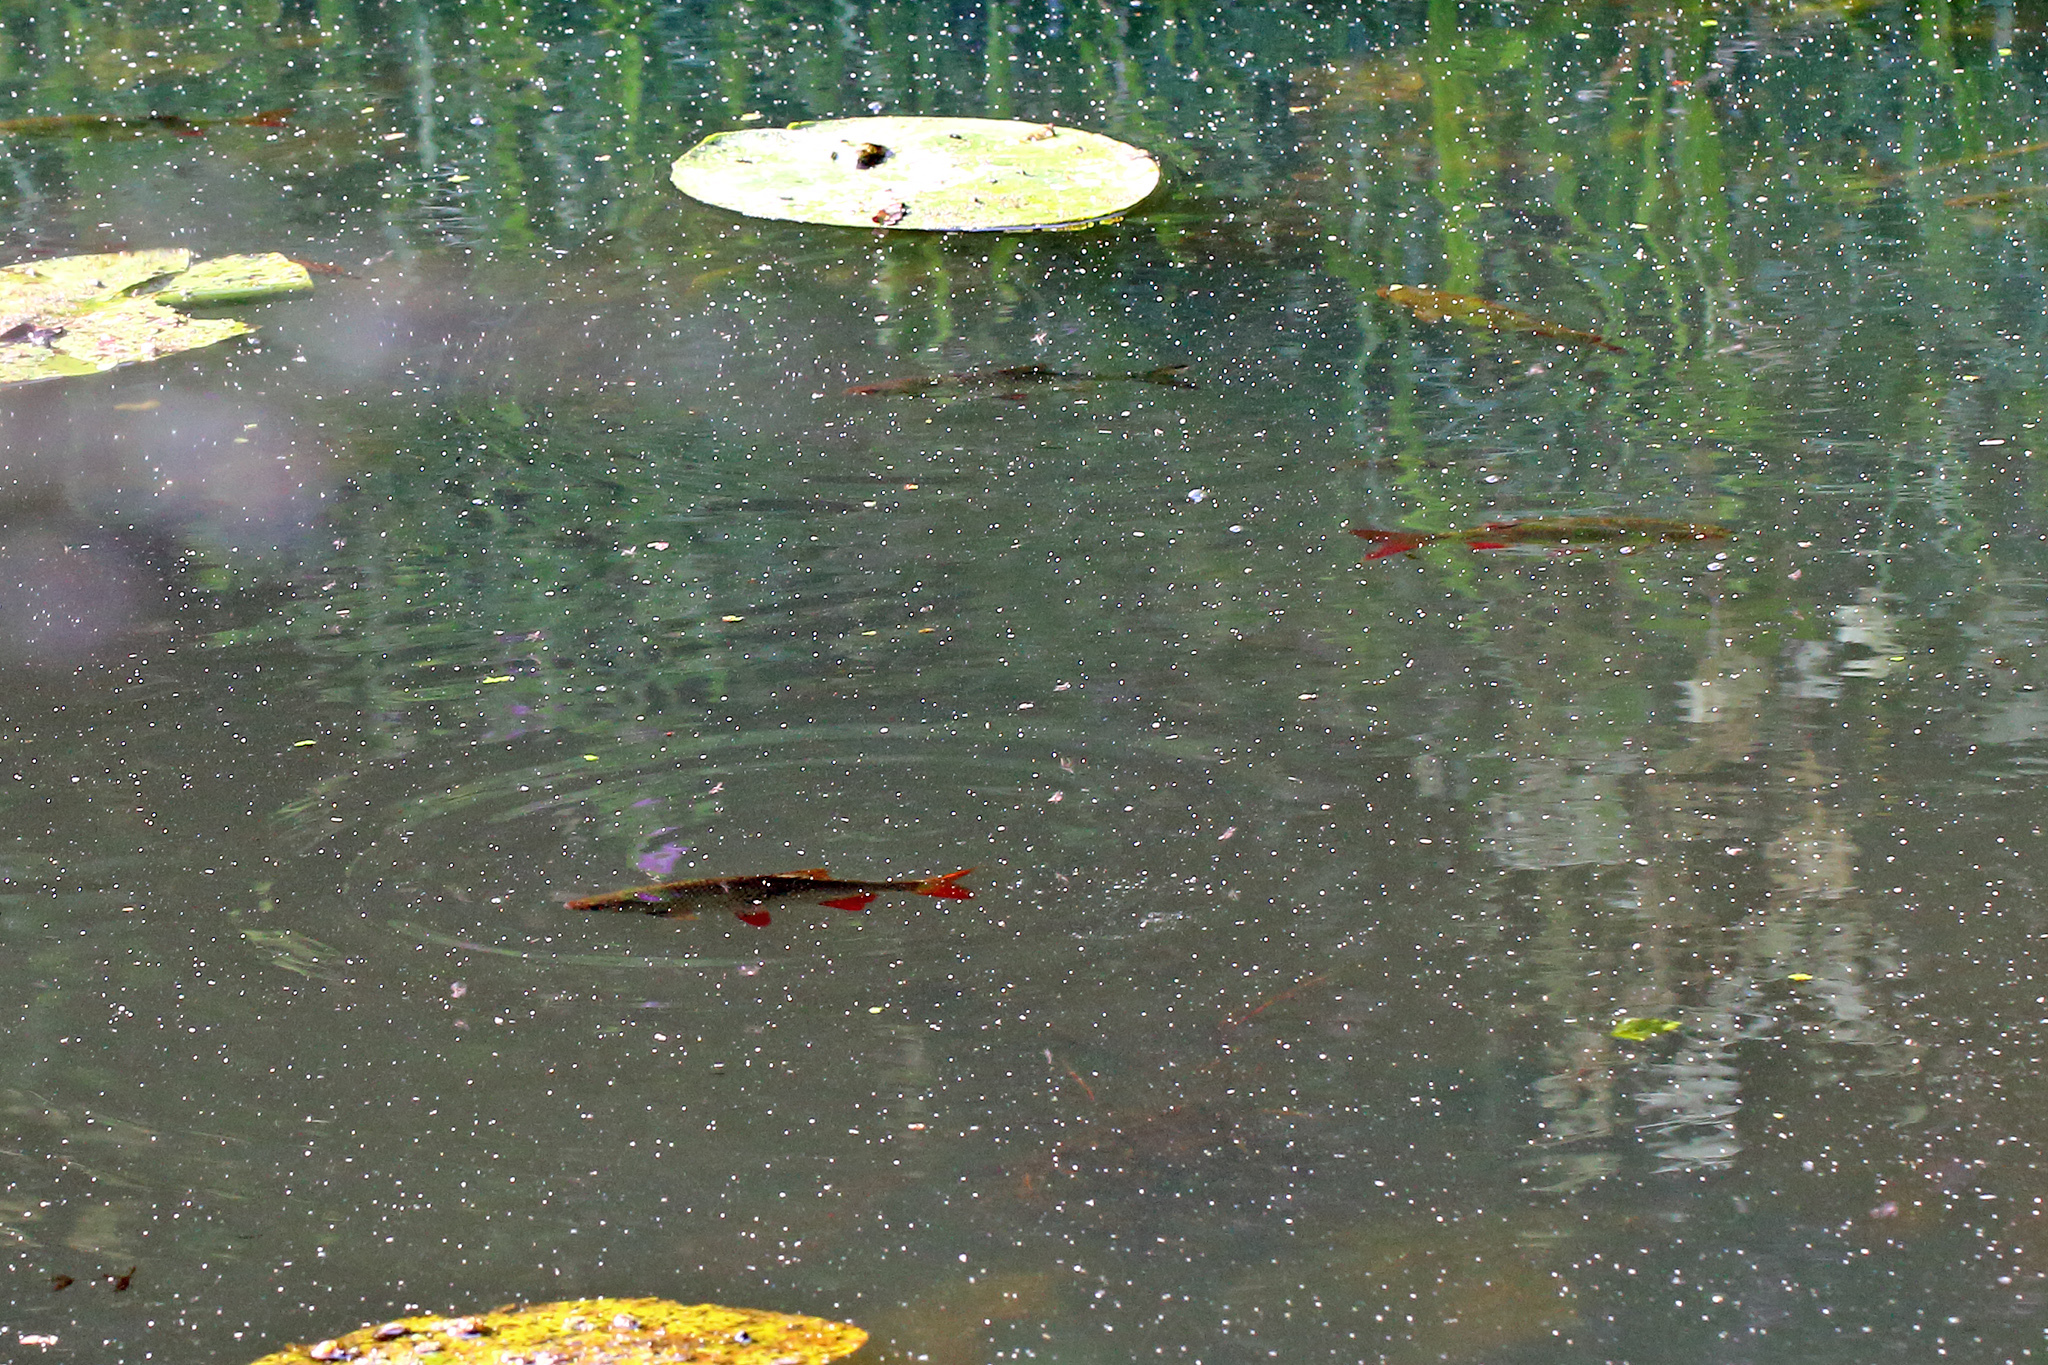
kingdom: Animalia
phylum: Chordata
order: Cypriniformes
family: Cyprinidae
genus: Scardinius
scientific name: Scardinius erythrophthalmus
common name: Rudd
